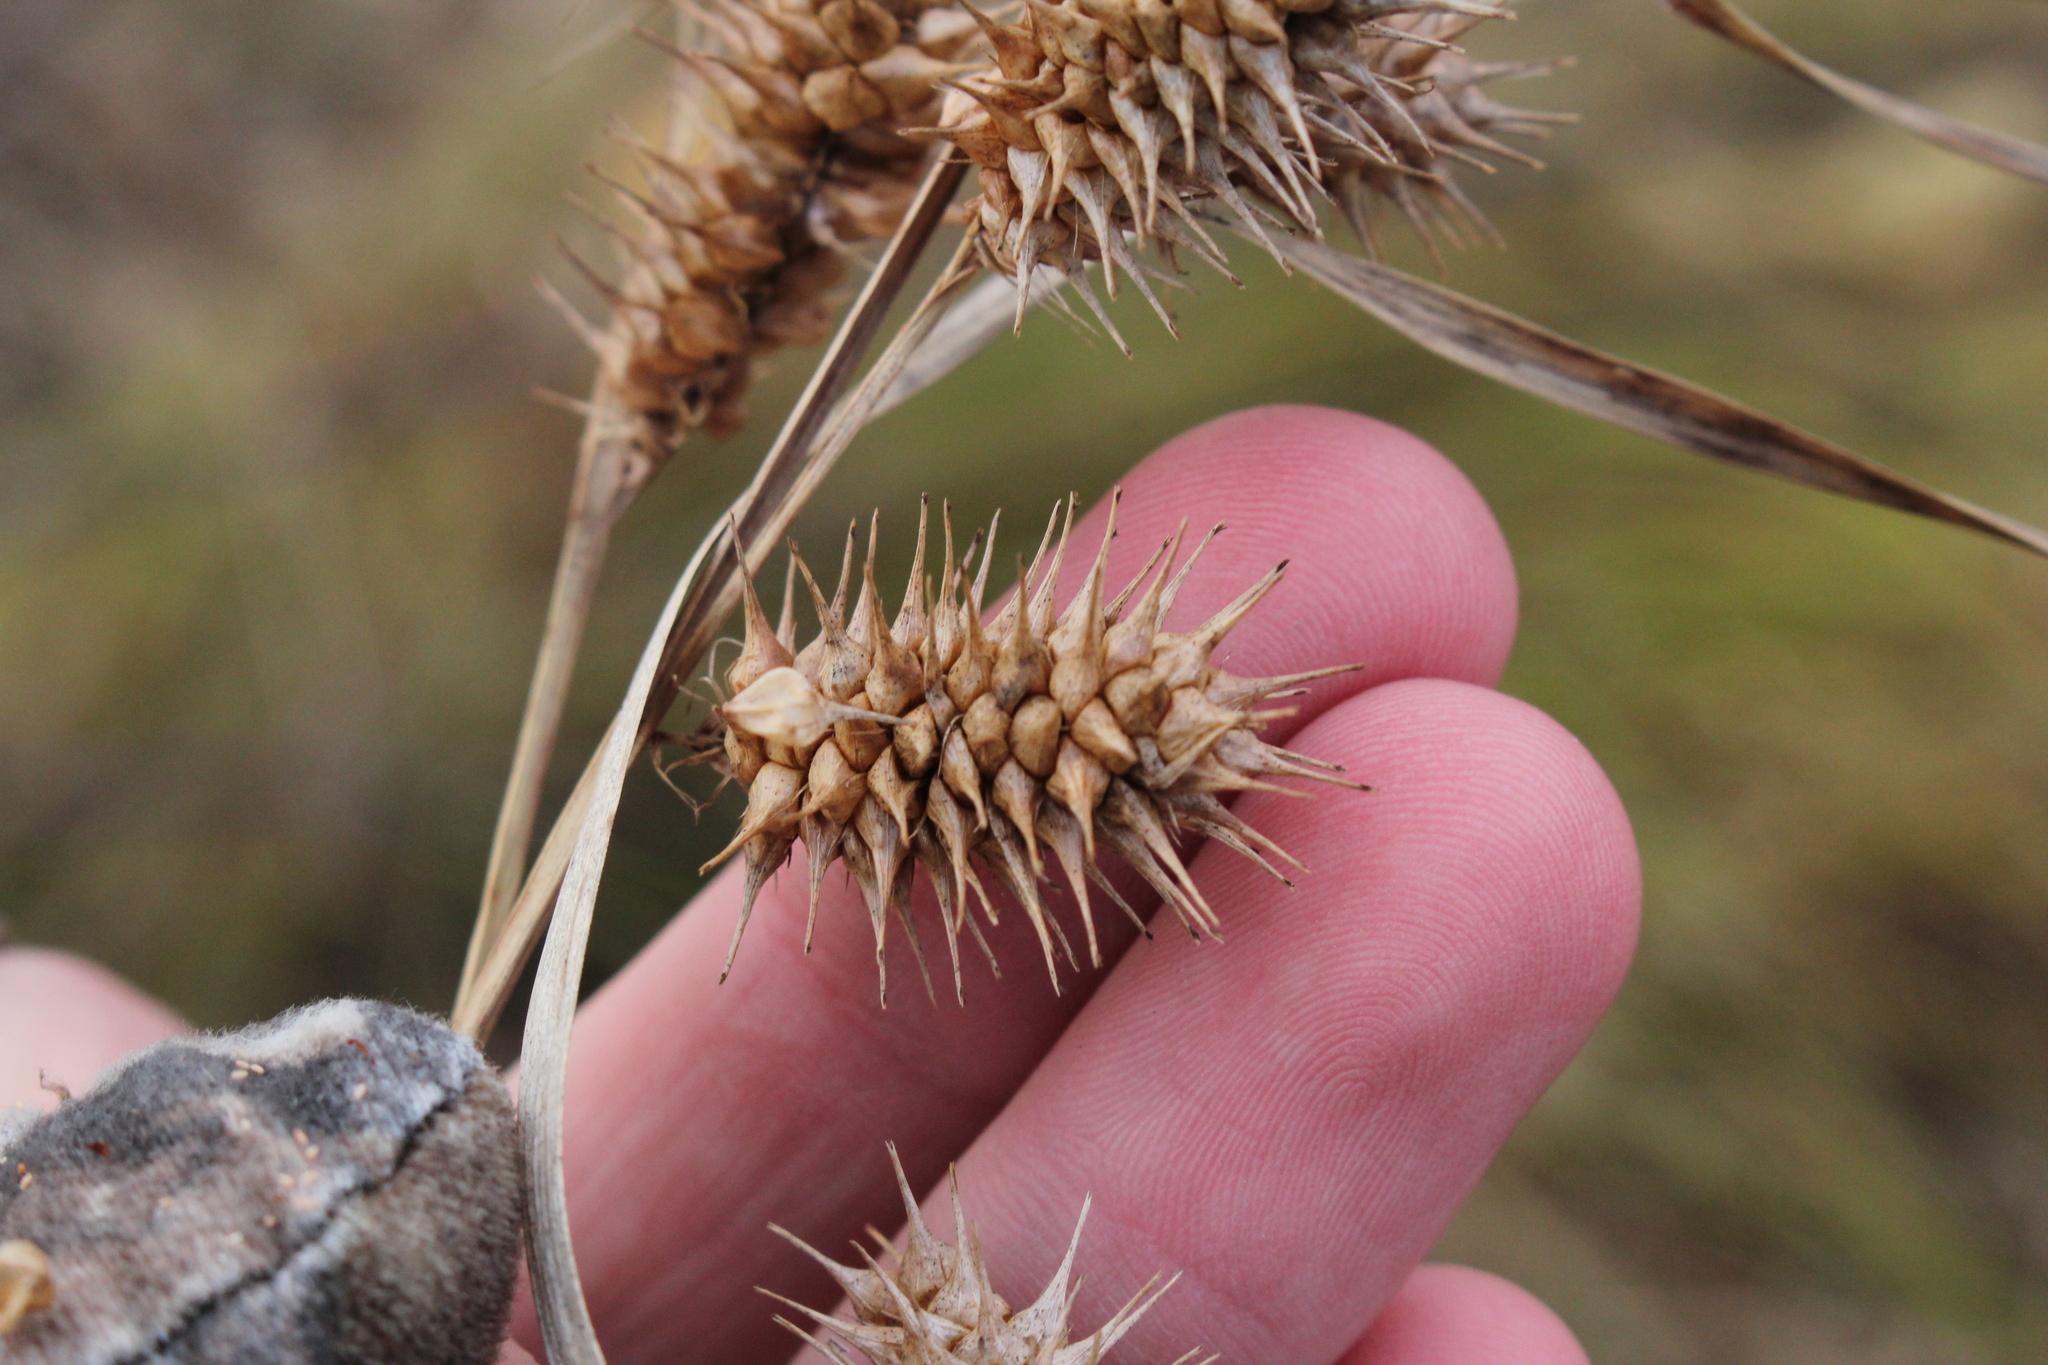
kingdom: Plantae
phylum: Tracheophyta
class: Liliopsida
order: Poales
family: Cyperaceae
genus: Carex
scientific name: Carex lurida
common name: Sallow sedge
